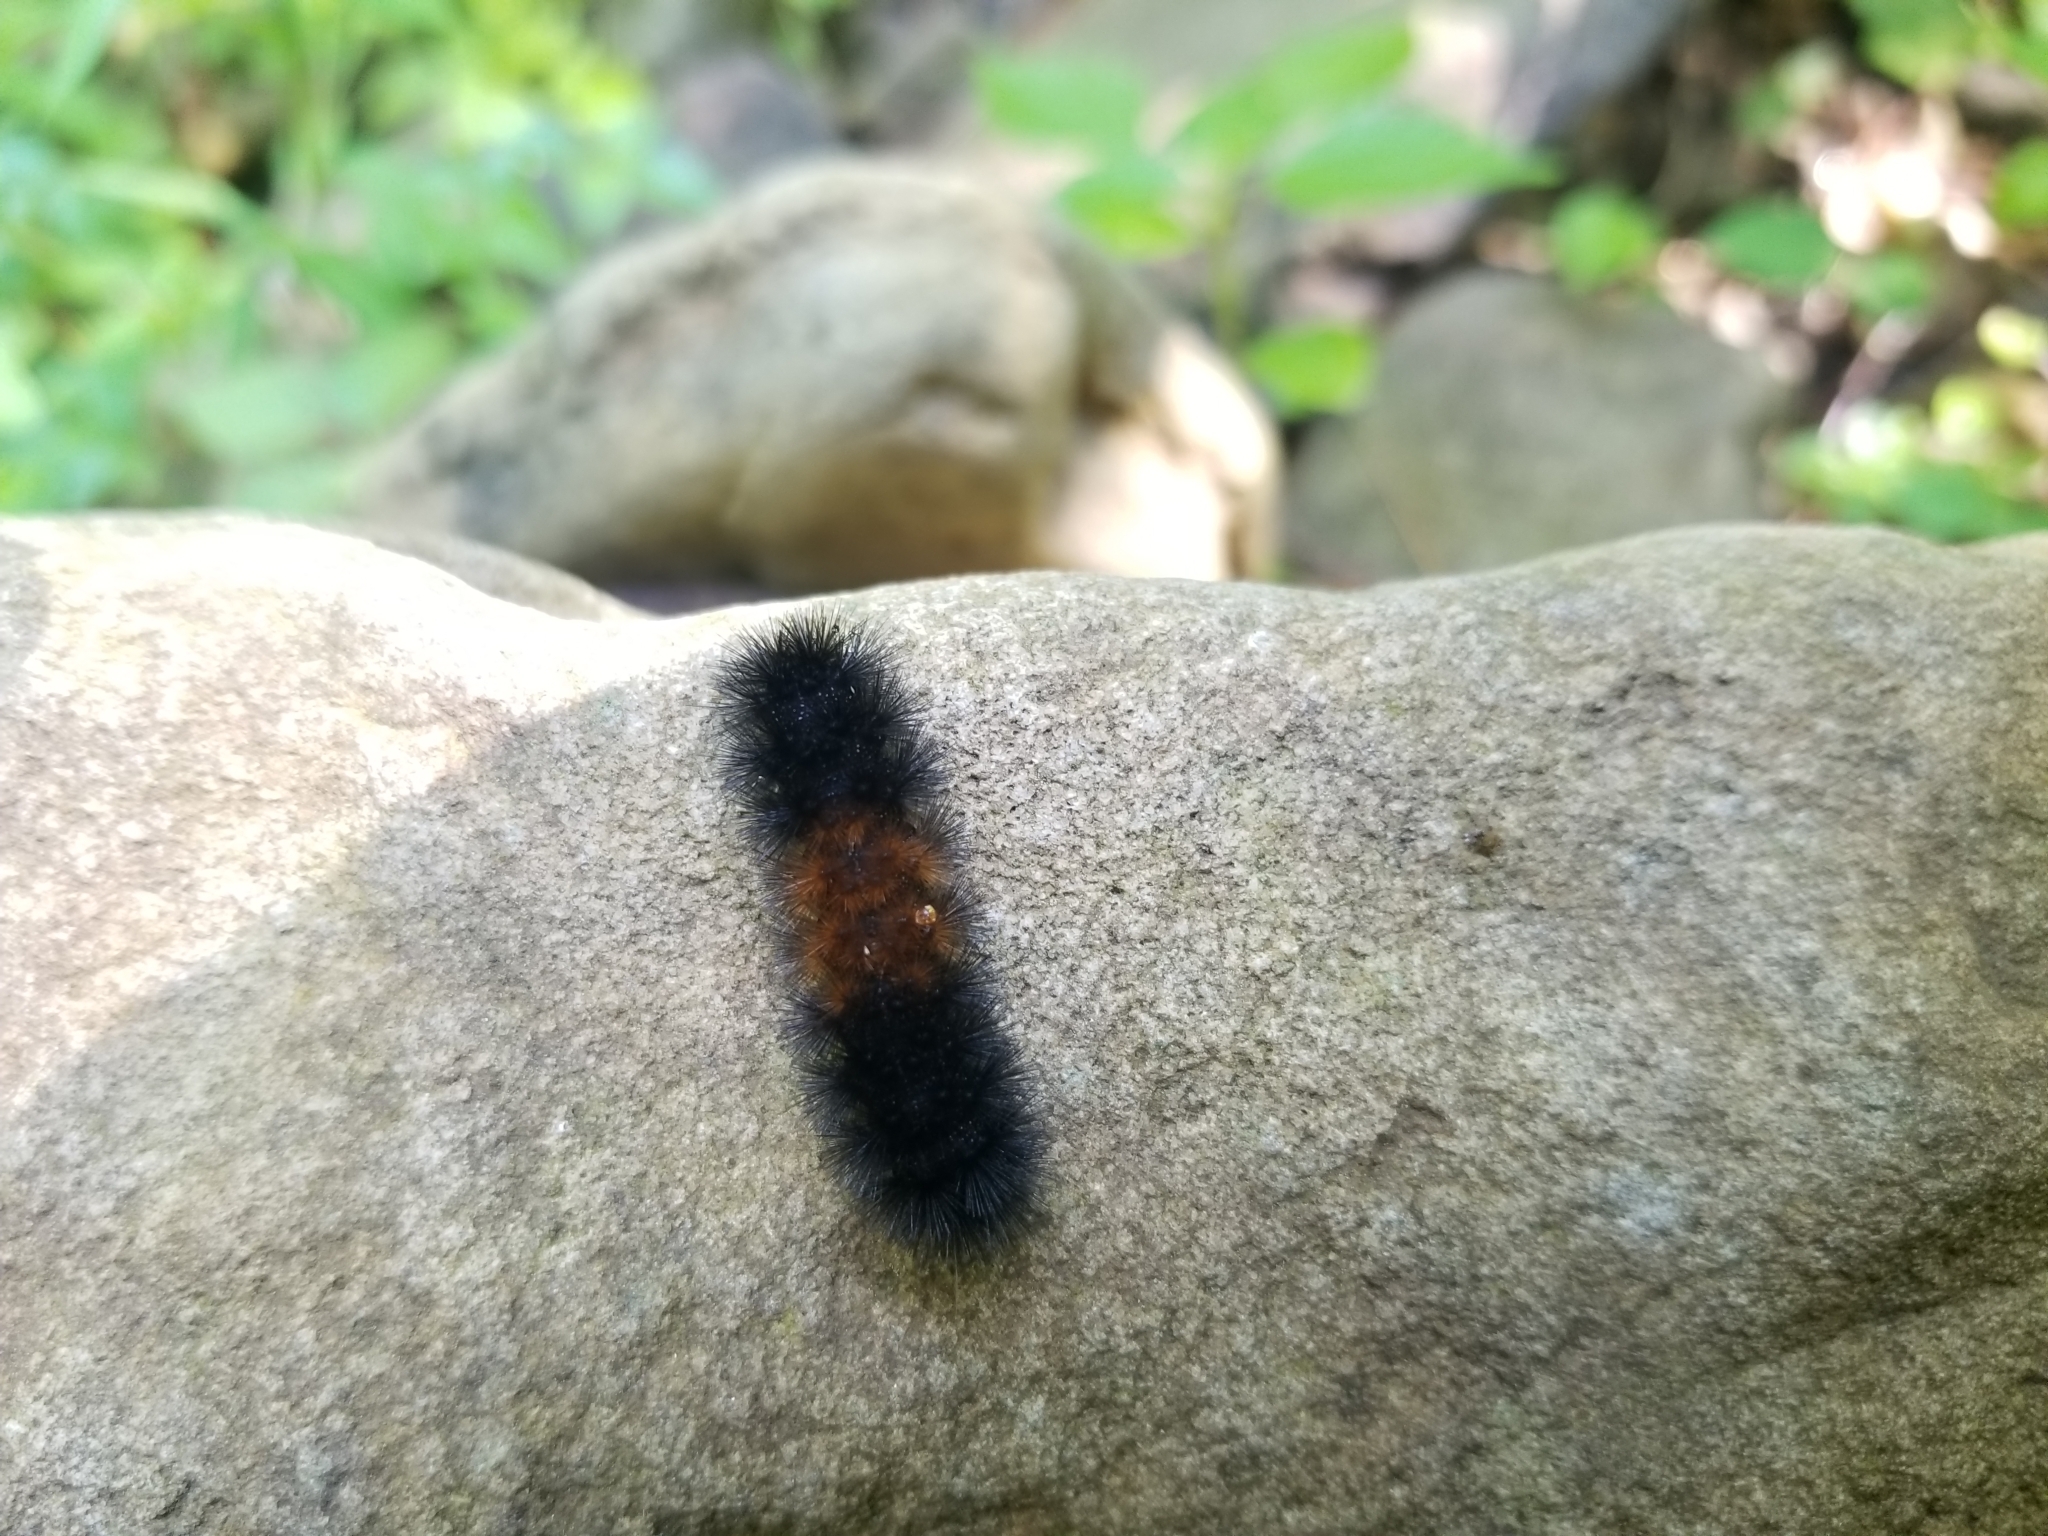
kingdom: Animalia
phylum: Arthropoda
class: Insecta
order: Lepidoptera
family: Erebidae
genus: Pyrrharctia
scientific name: Pyrrharctia isabella
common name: Isabella tiger moth
